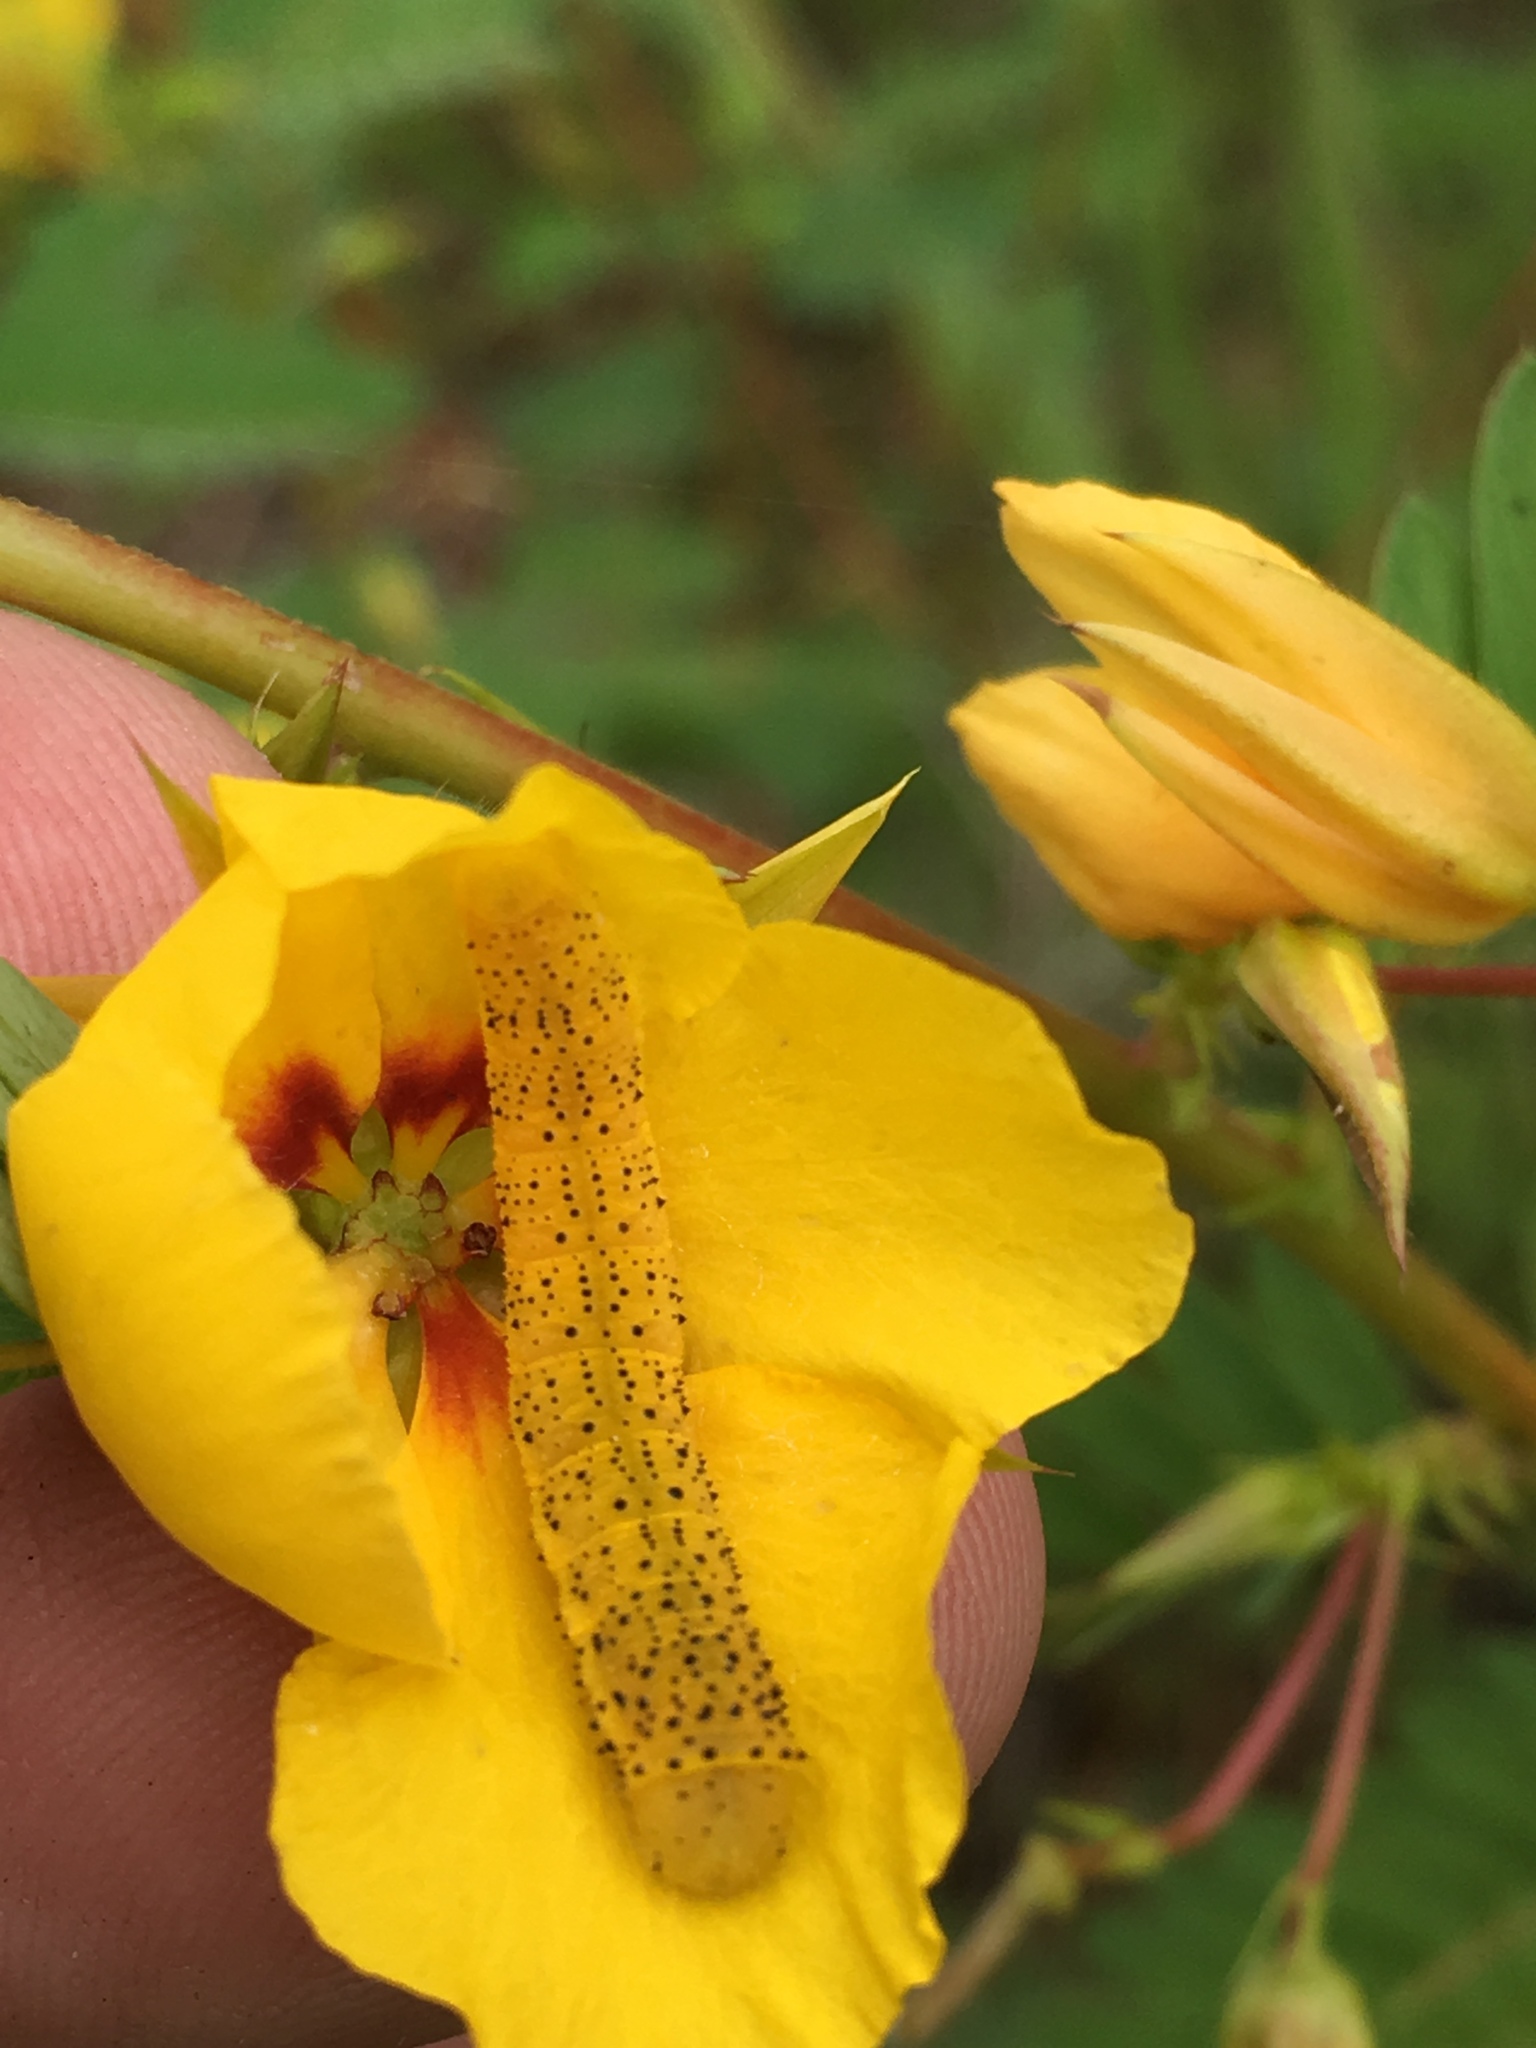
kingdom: Animalia
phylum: Arthropoda
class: Insecta
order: Lepidoptera
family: Pieridae
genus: Phoebis
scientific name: Phoebis sennae
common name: Cloudless sulphur
